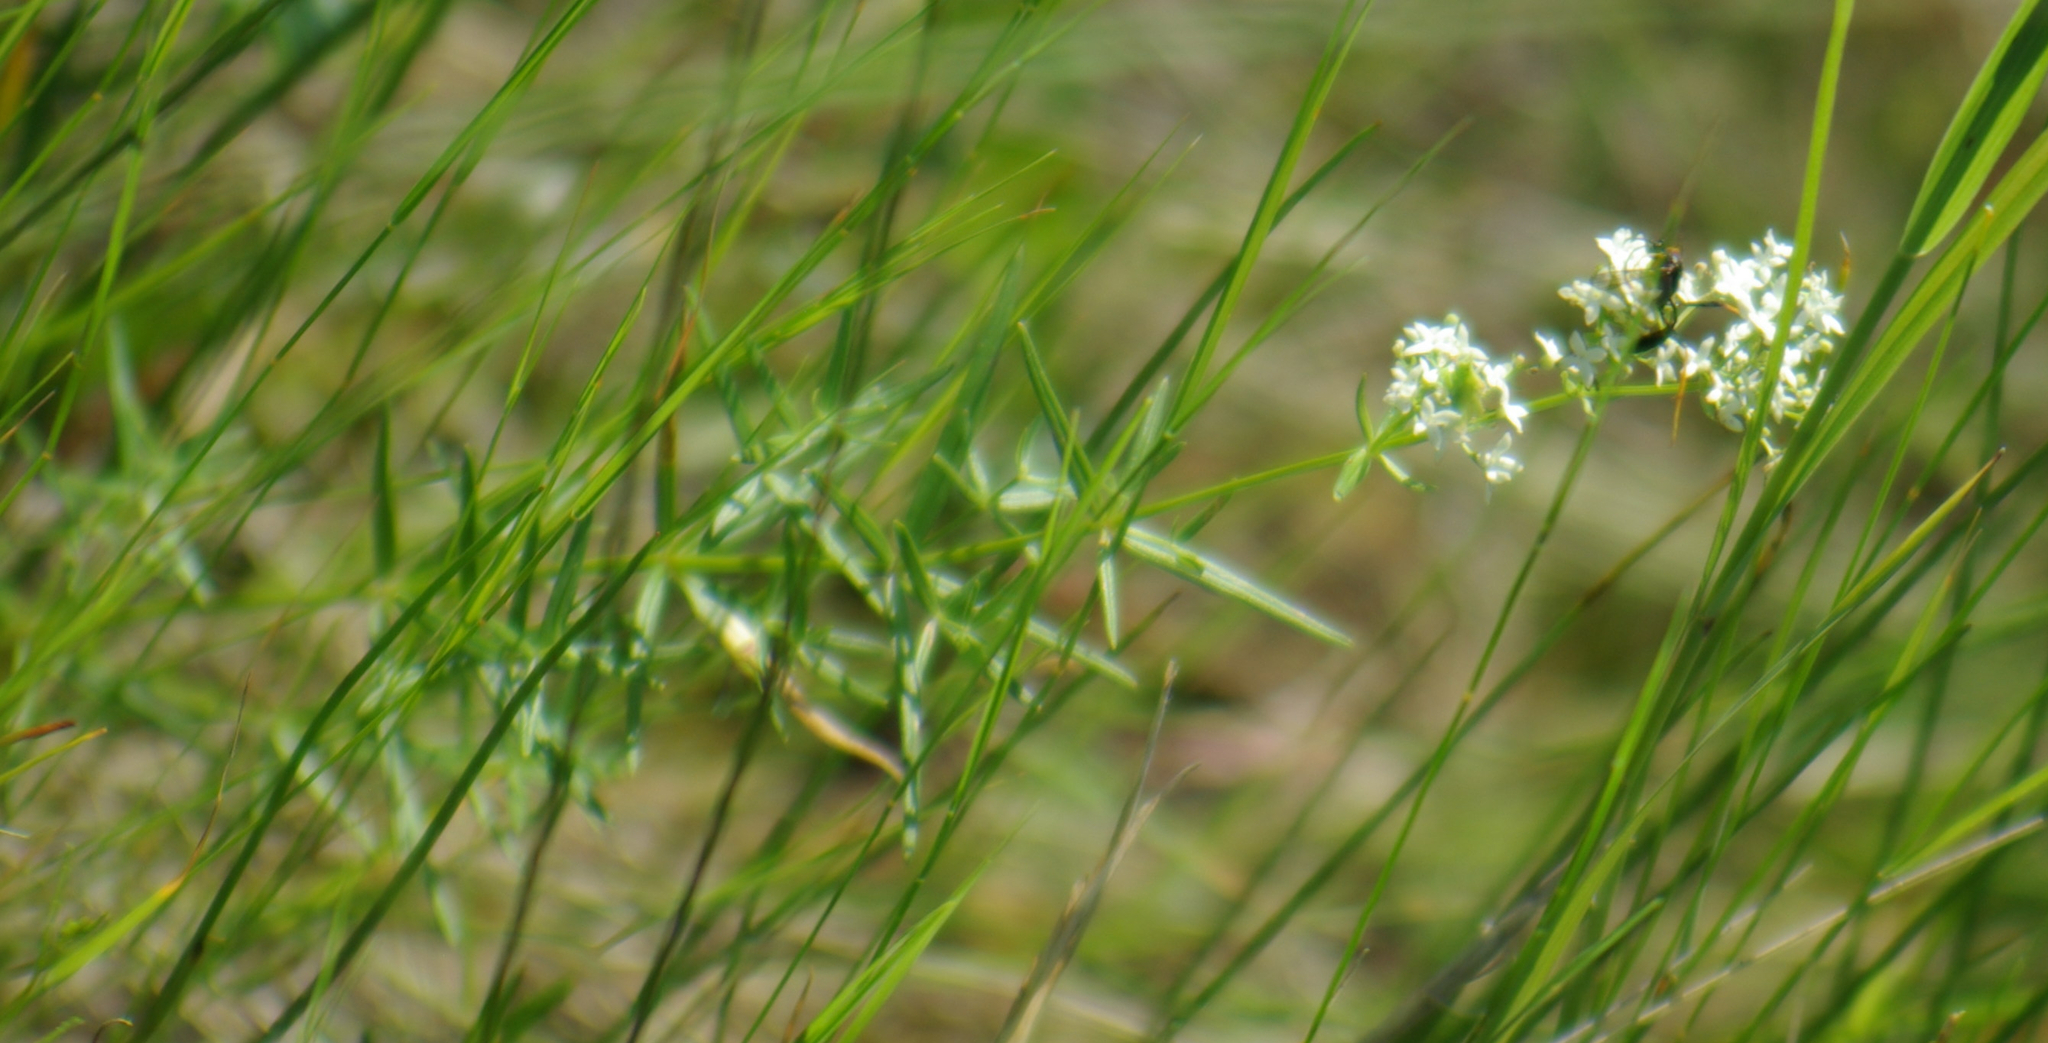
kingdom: Plantae
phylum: Tracheophyta
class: Magnoliopsida
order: Gentianales
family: Rubiaceae
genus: Galium
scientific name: Galium boreale
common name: Northern bedstraw
